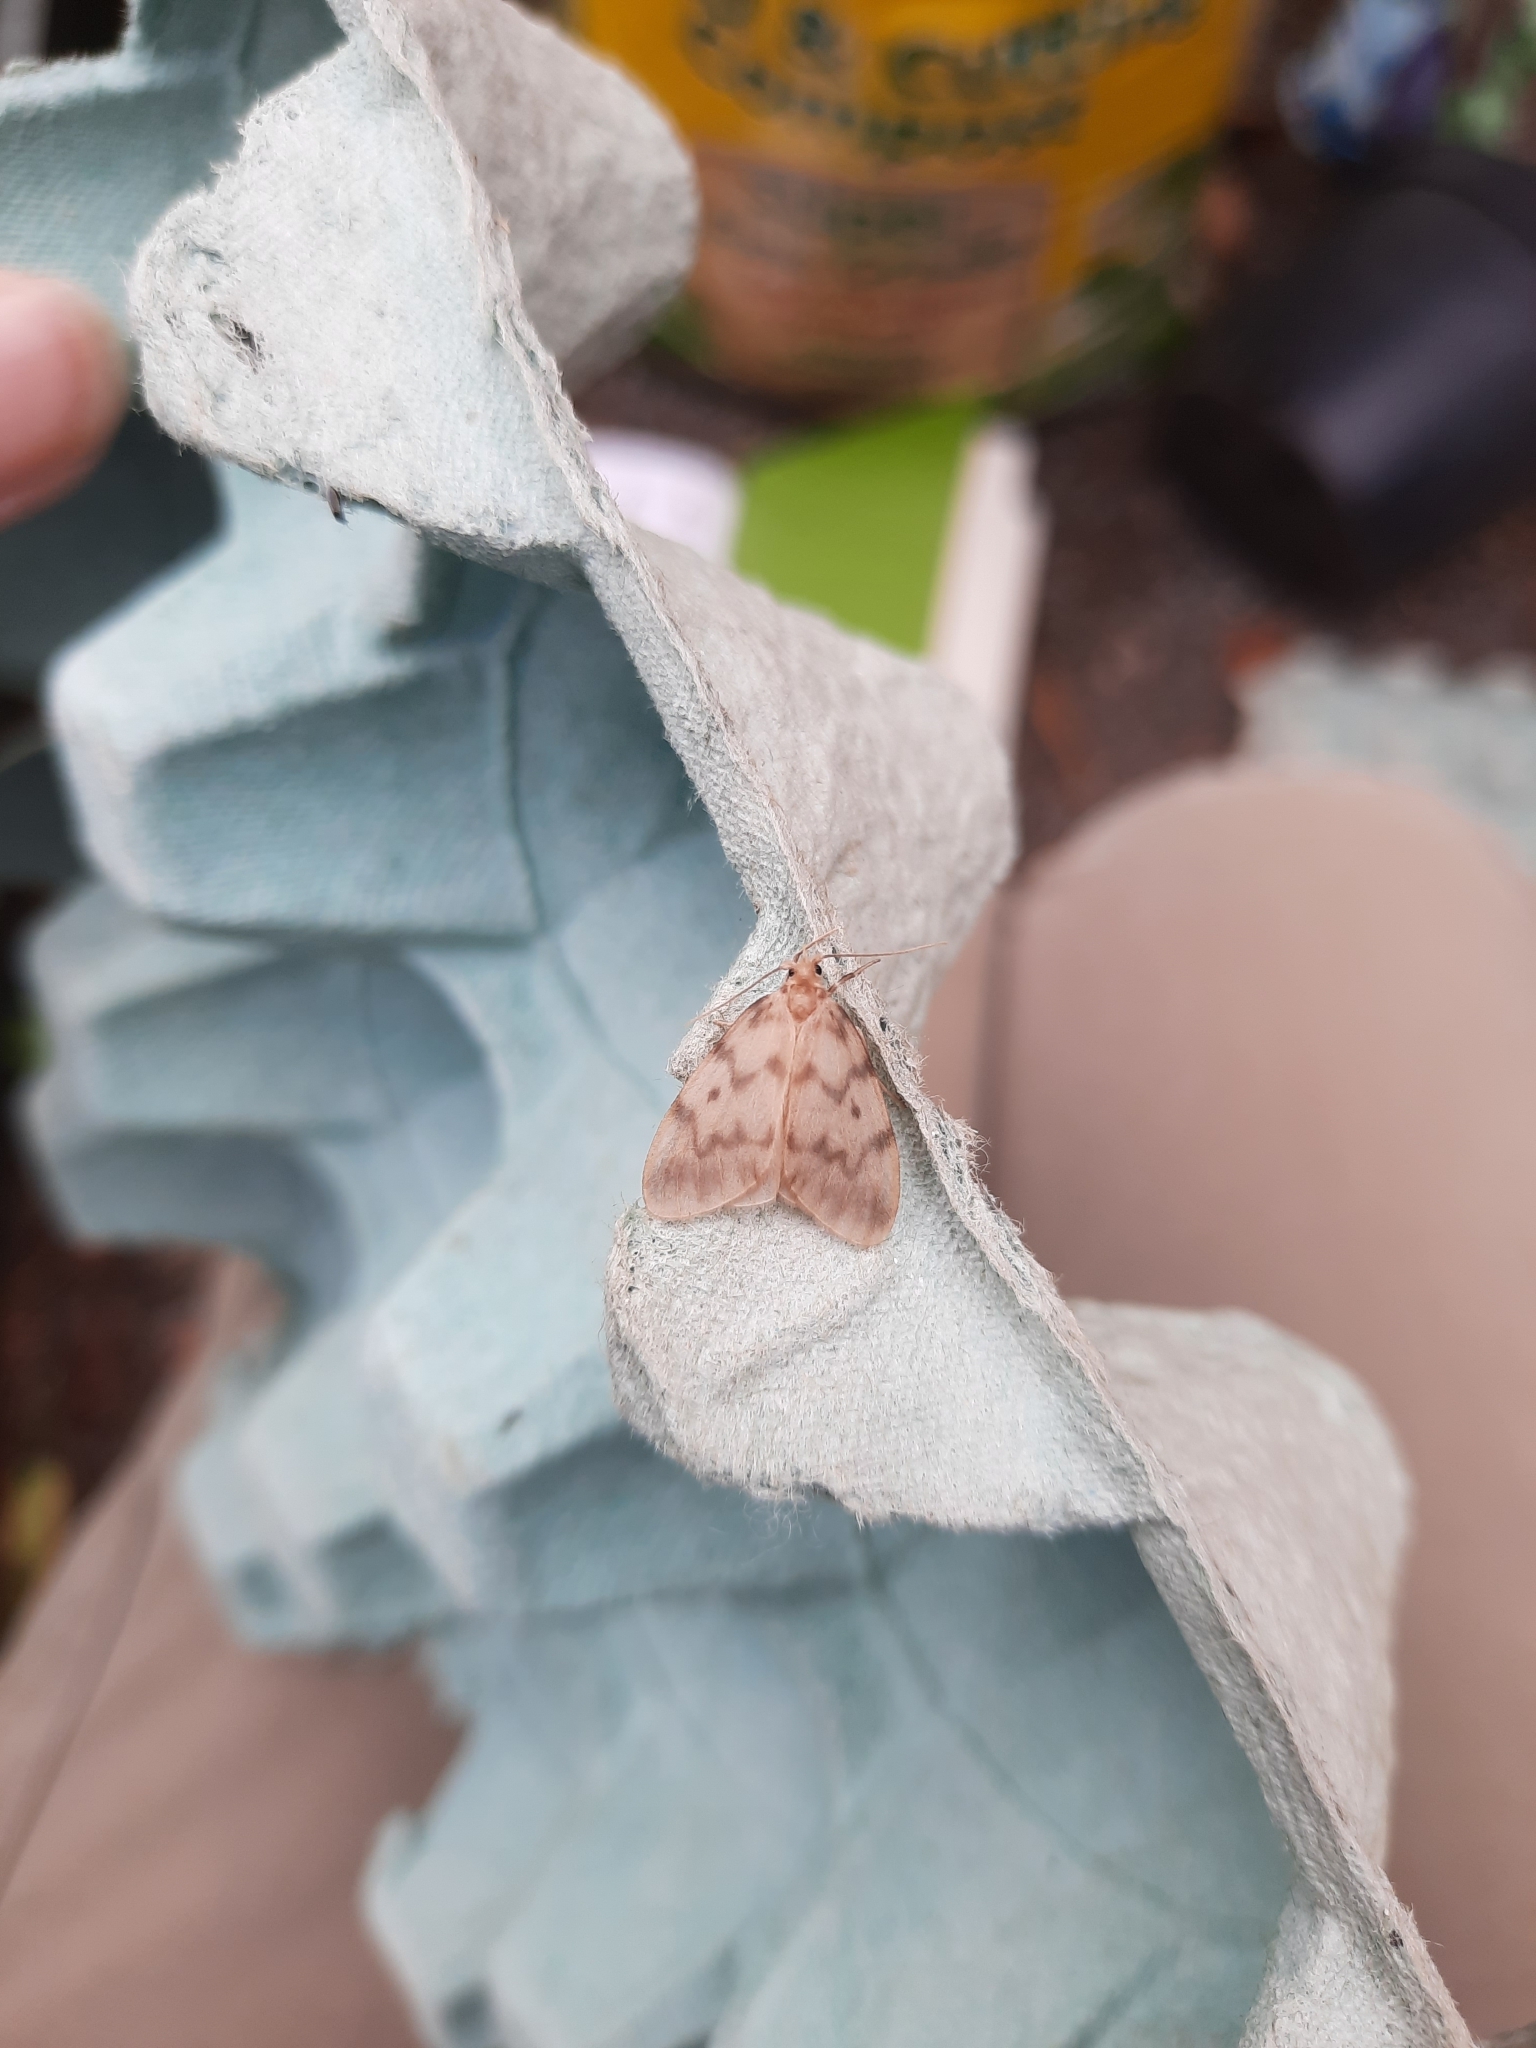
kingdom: Animalia
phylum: Arthropoda
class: Insecta
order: Lepidoptera
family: Erebidae
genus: Nudaria
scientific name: Nudaria mundana
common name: Muslin footman
